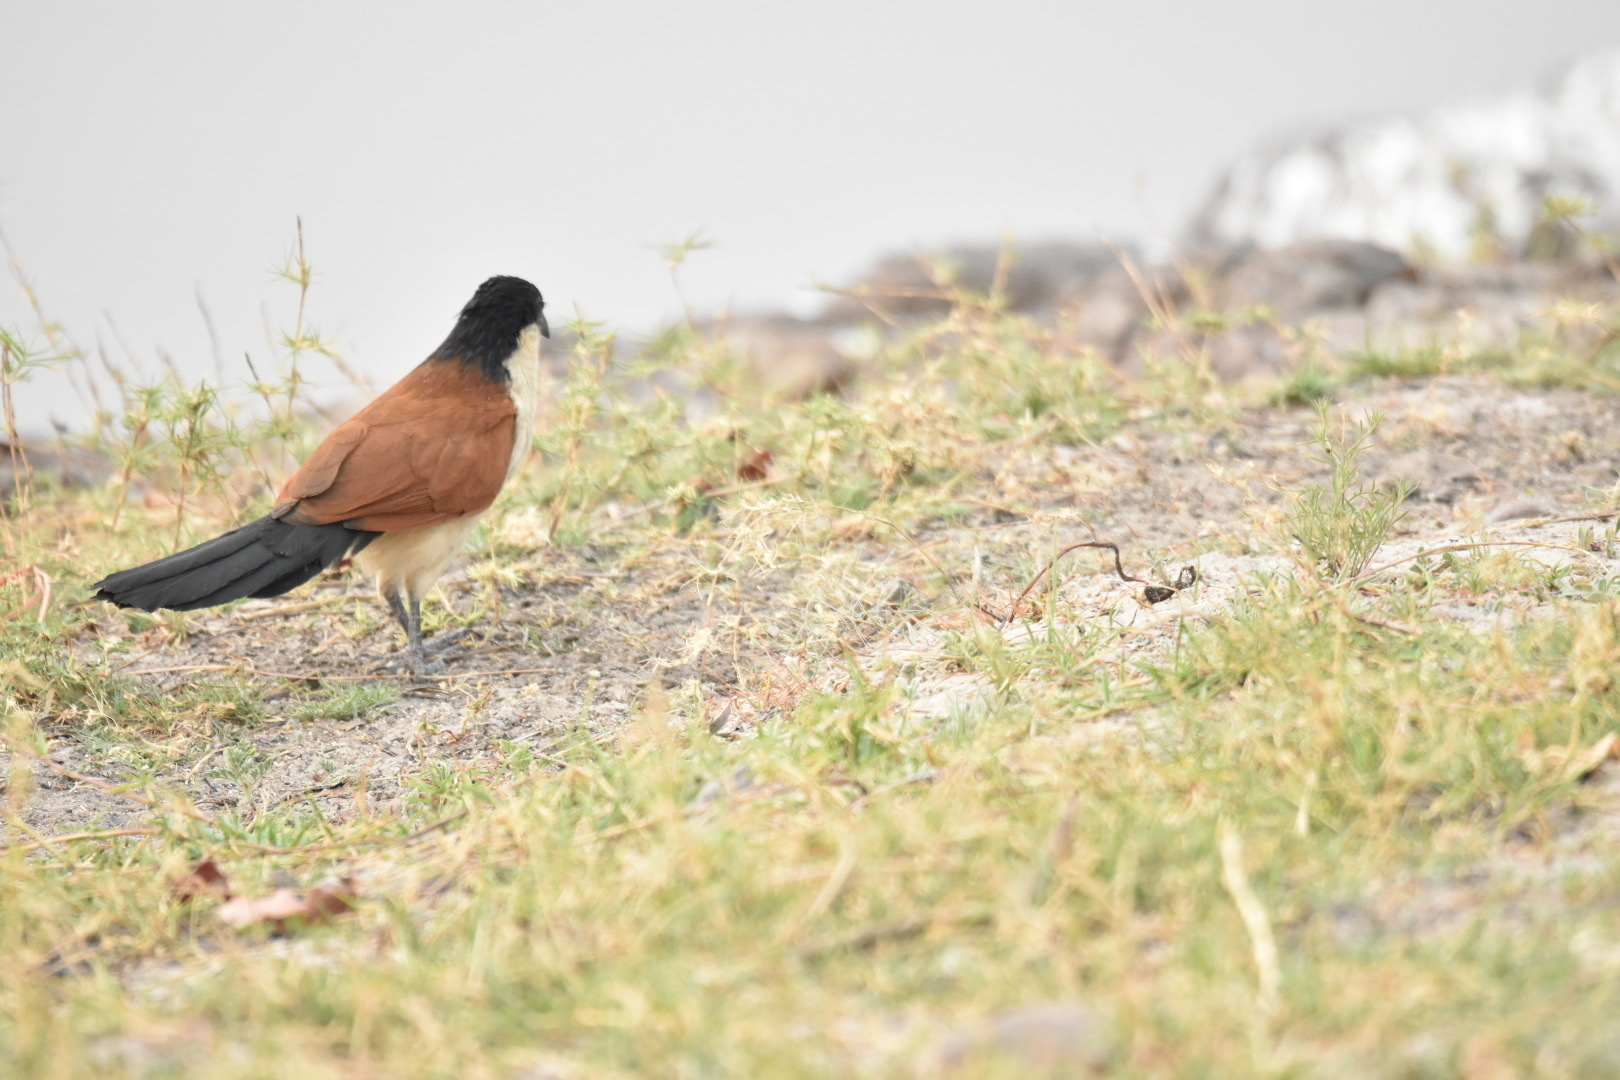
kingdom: Animalia
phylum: Chordata
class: Aves
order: Cuculiformes
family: Cuculidae
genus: Centropus
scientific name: Centropus senegalensis
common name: Senegal coucal
